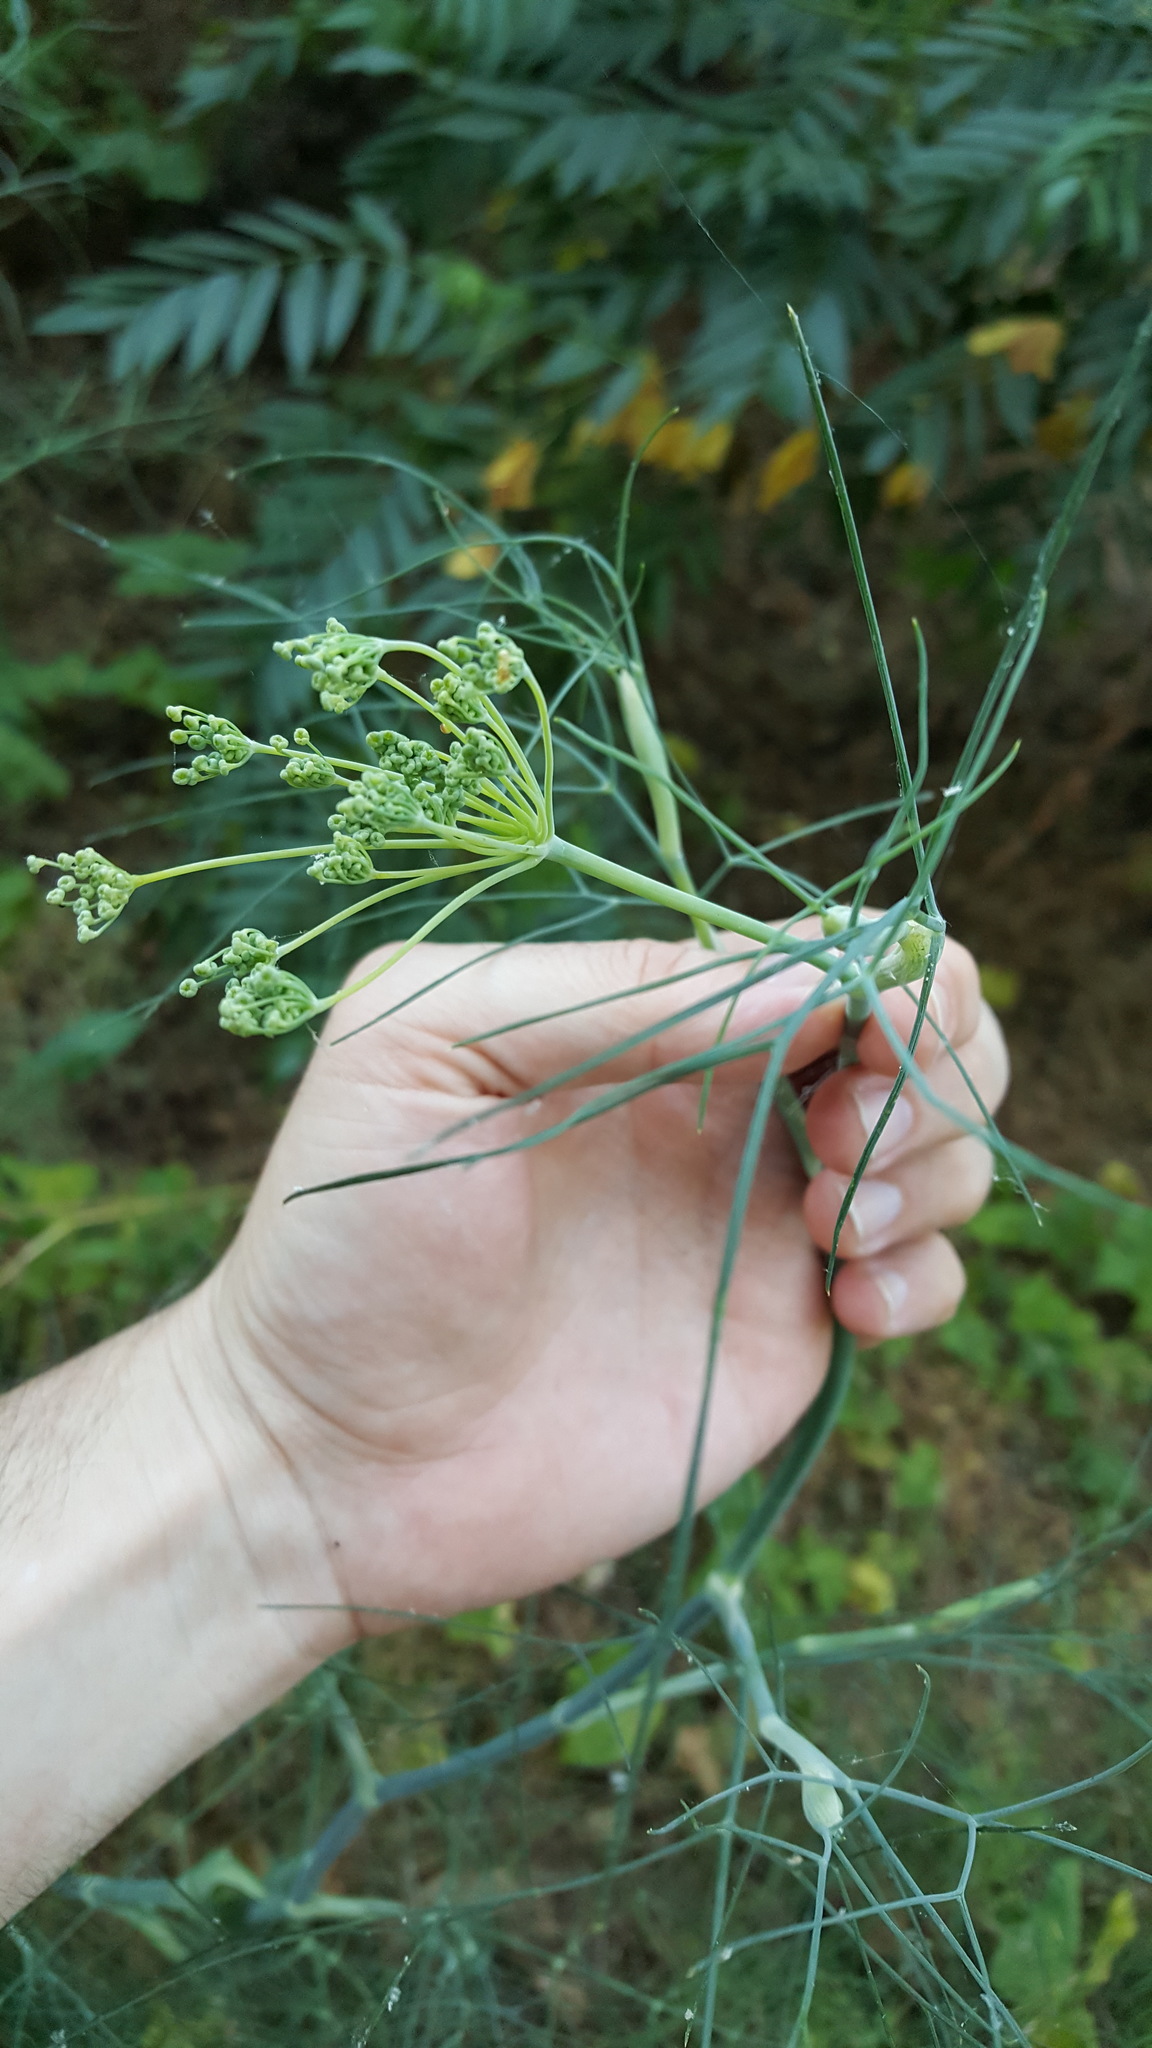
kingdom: Plantae
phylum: Tracheophyta
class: Magnoliopsida
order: Apiales
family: Apiaceae
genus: Foeniculum
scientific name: Foeniculum vulgare
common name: Fennel
